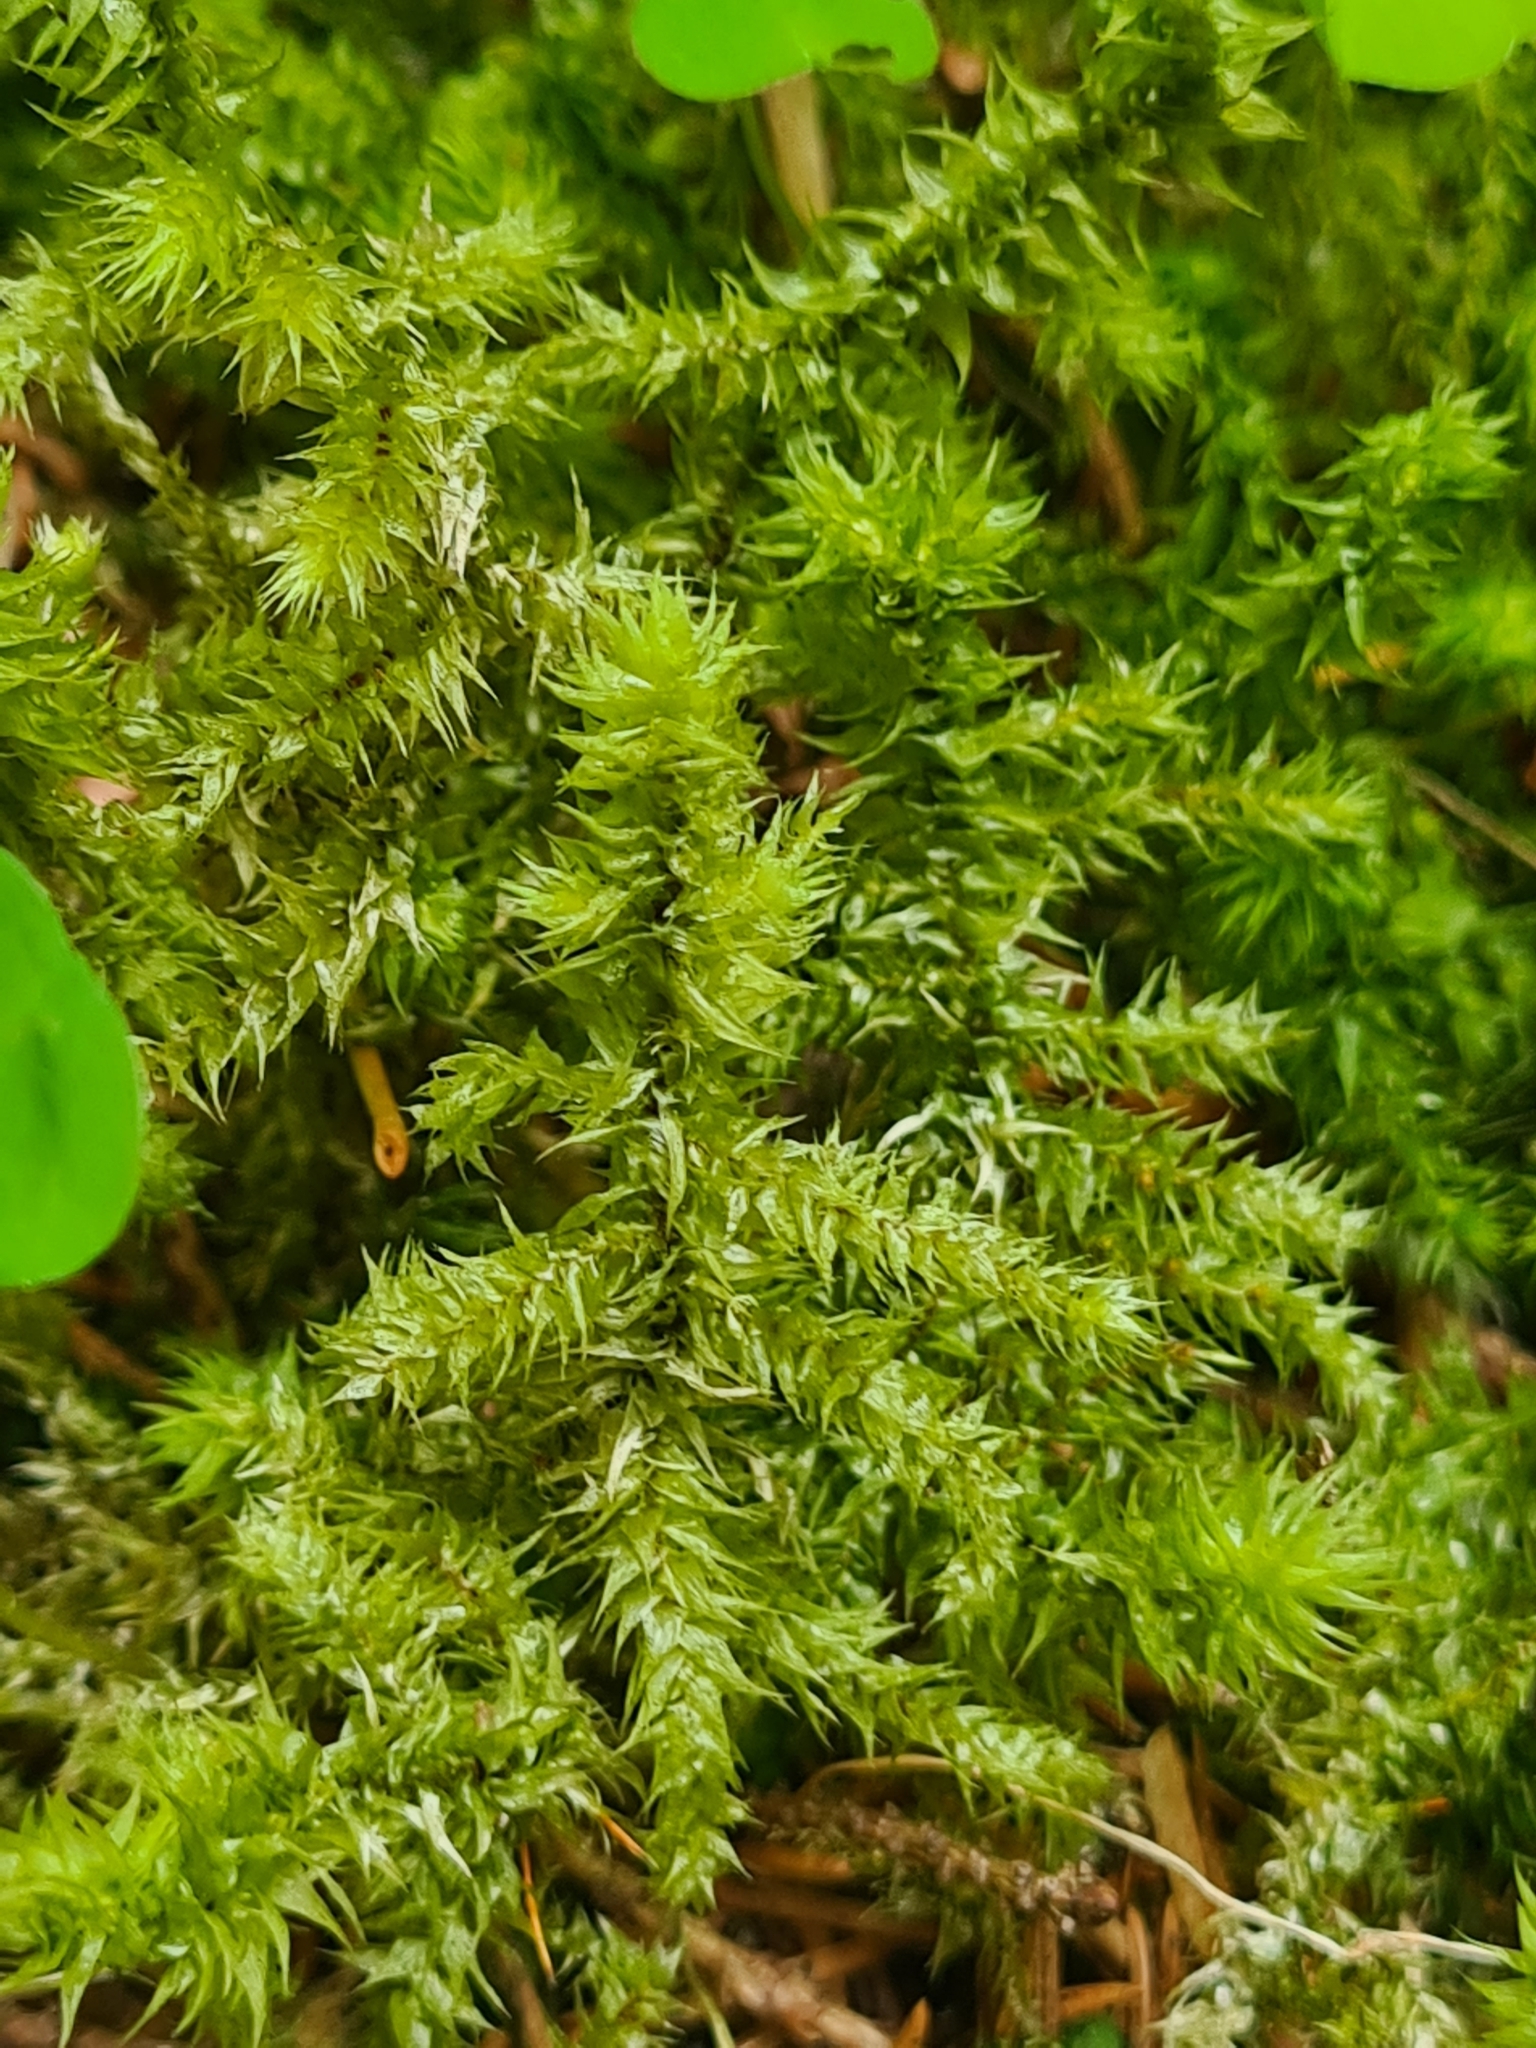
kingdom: Plantae
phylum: Bryophyta
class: Bryopsida
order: Hypnales
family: Hylocomiaceae
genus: Hylocomiadelphus
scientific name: Hylocomiadelphus triquetrus
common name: Rough goose neck moss
